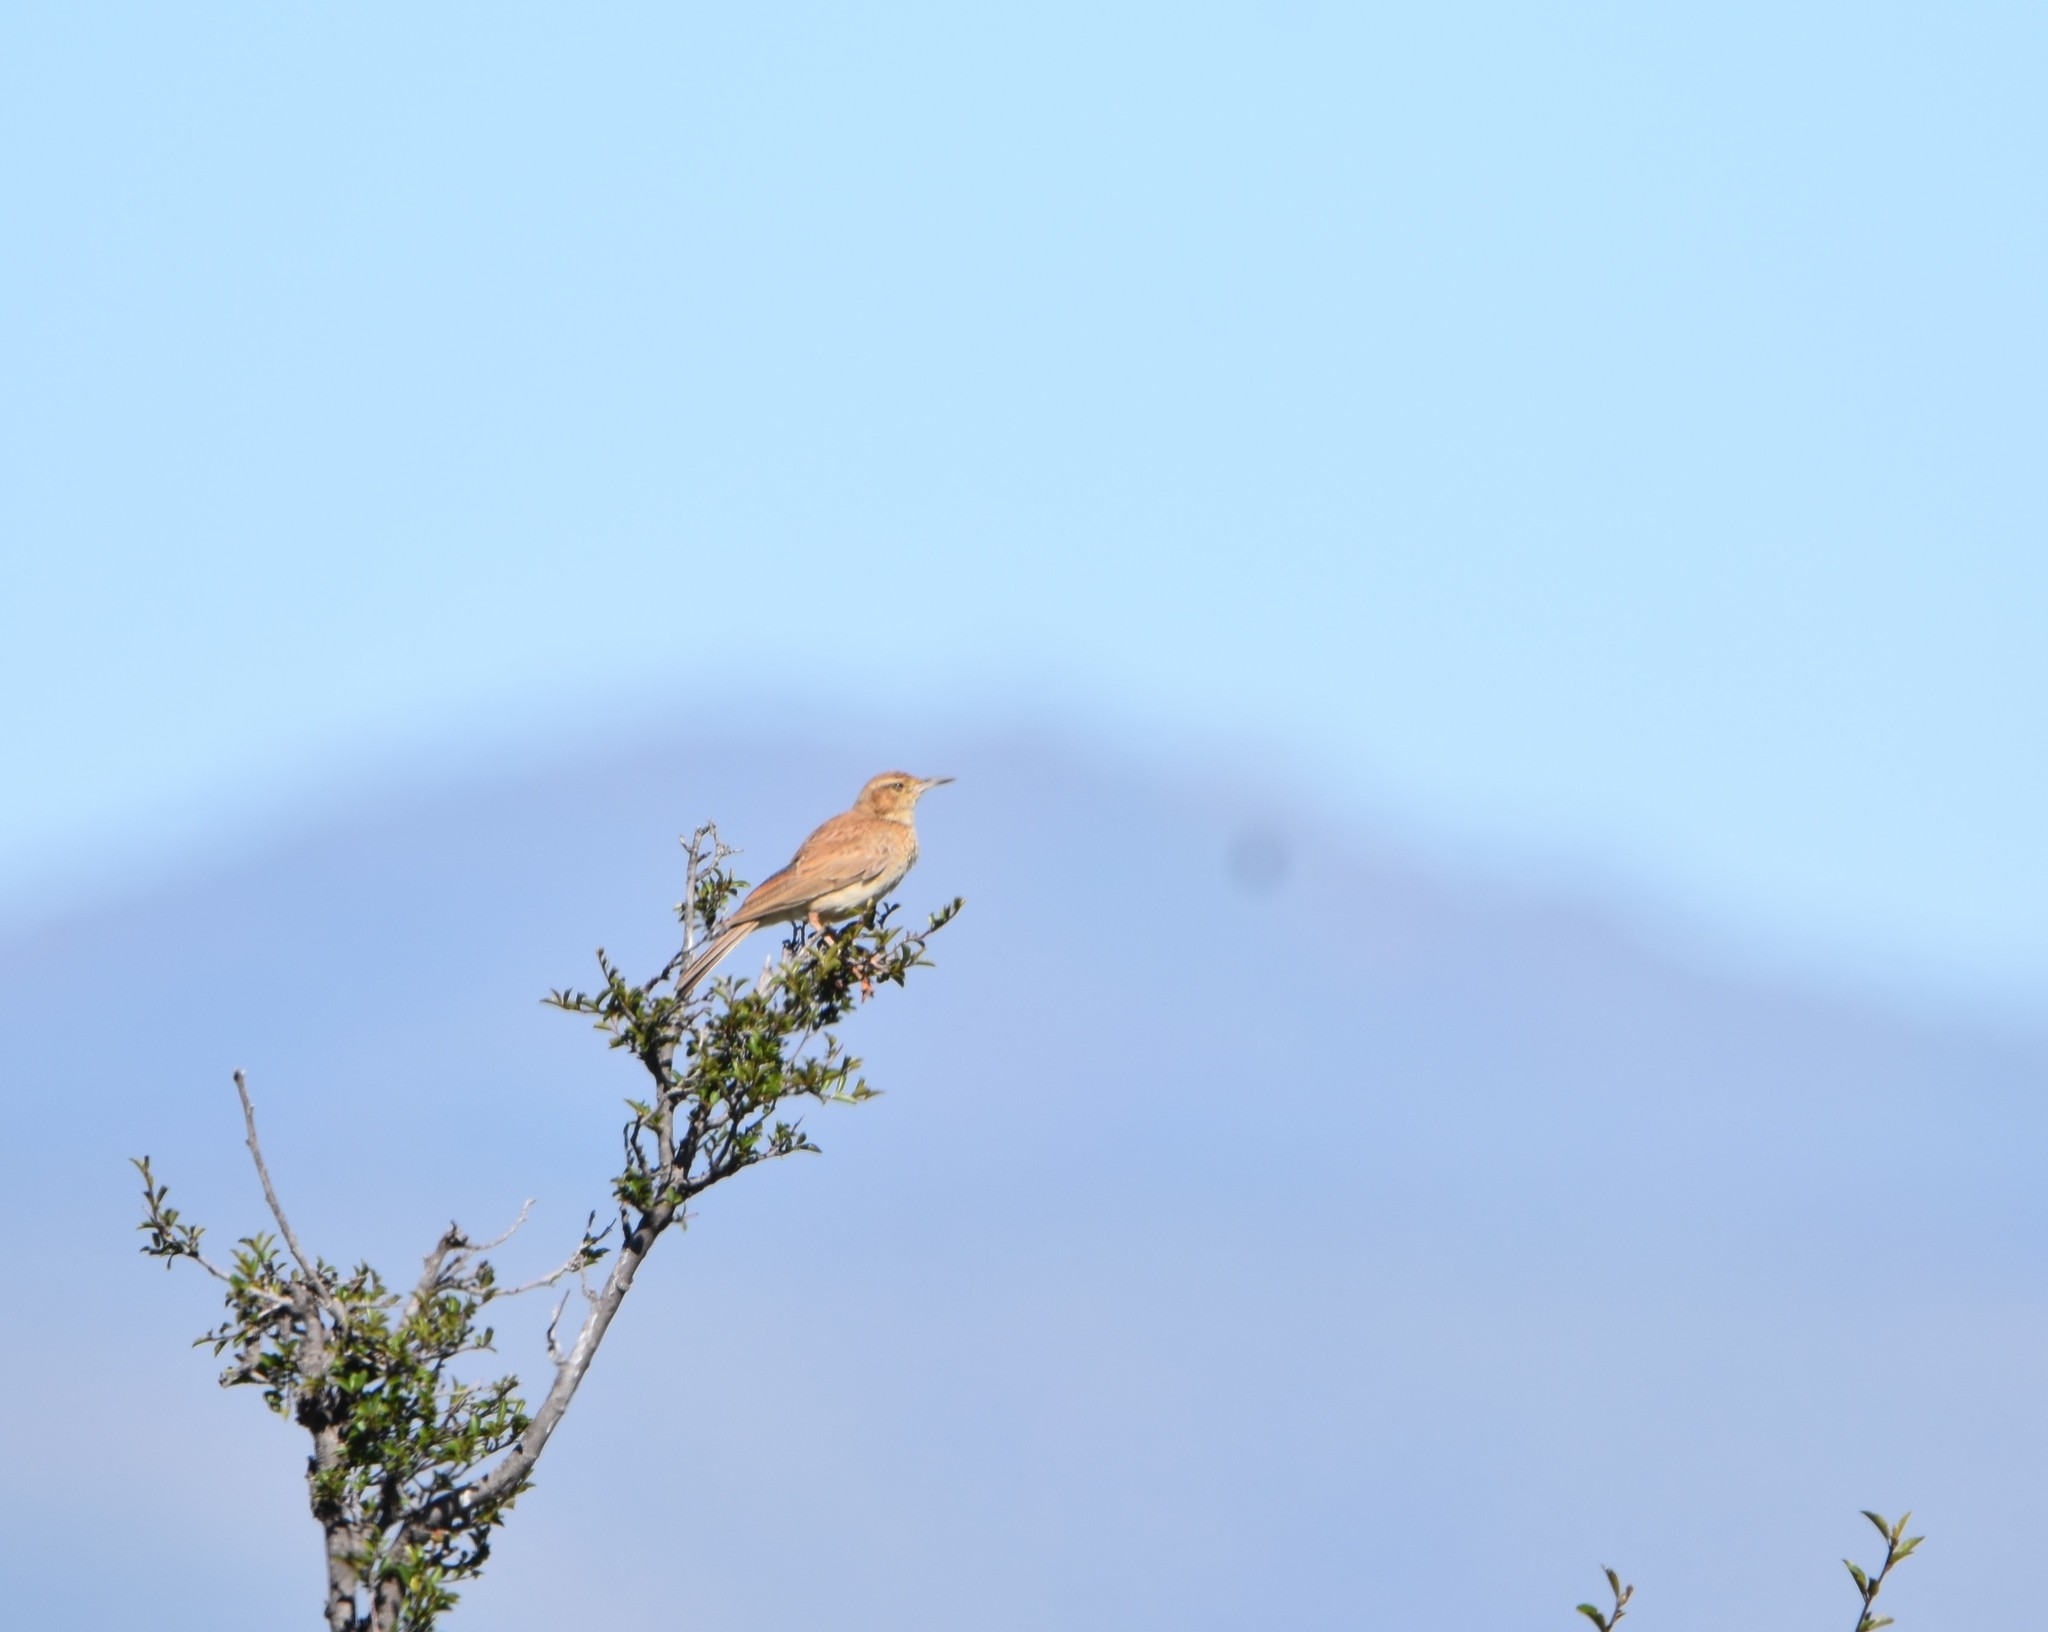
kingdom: Animalia
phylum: Chordata
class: Aves
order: Passeriformes
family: Alaudidae
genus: Certhilauda
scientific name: Certhilauda semitorquata
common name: Eastern long-billed lark
